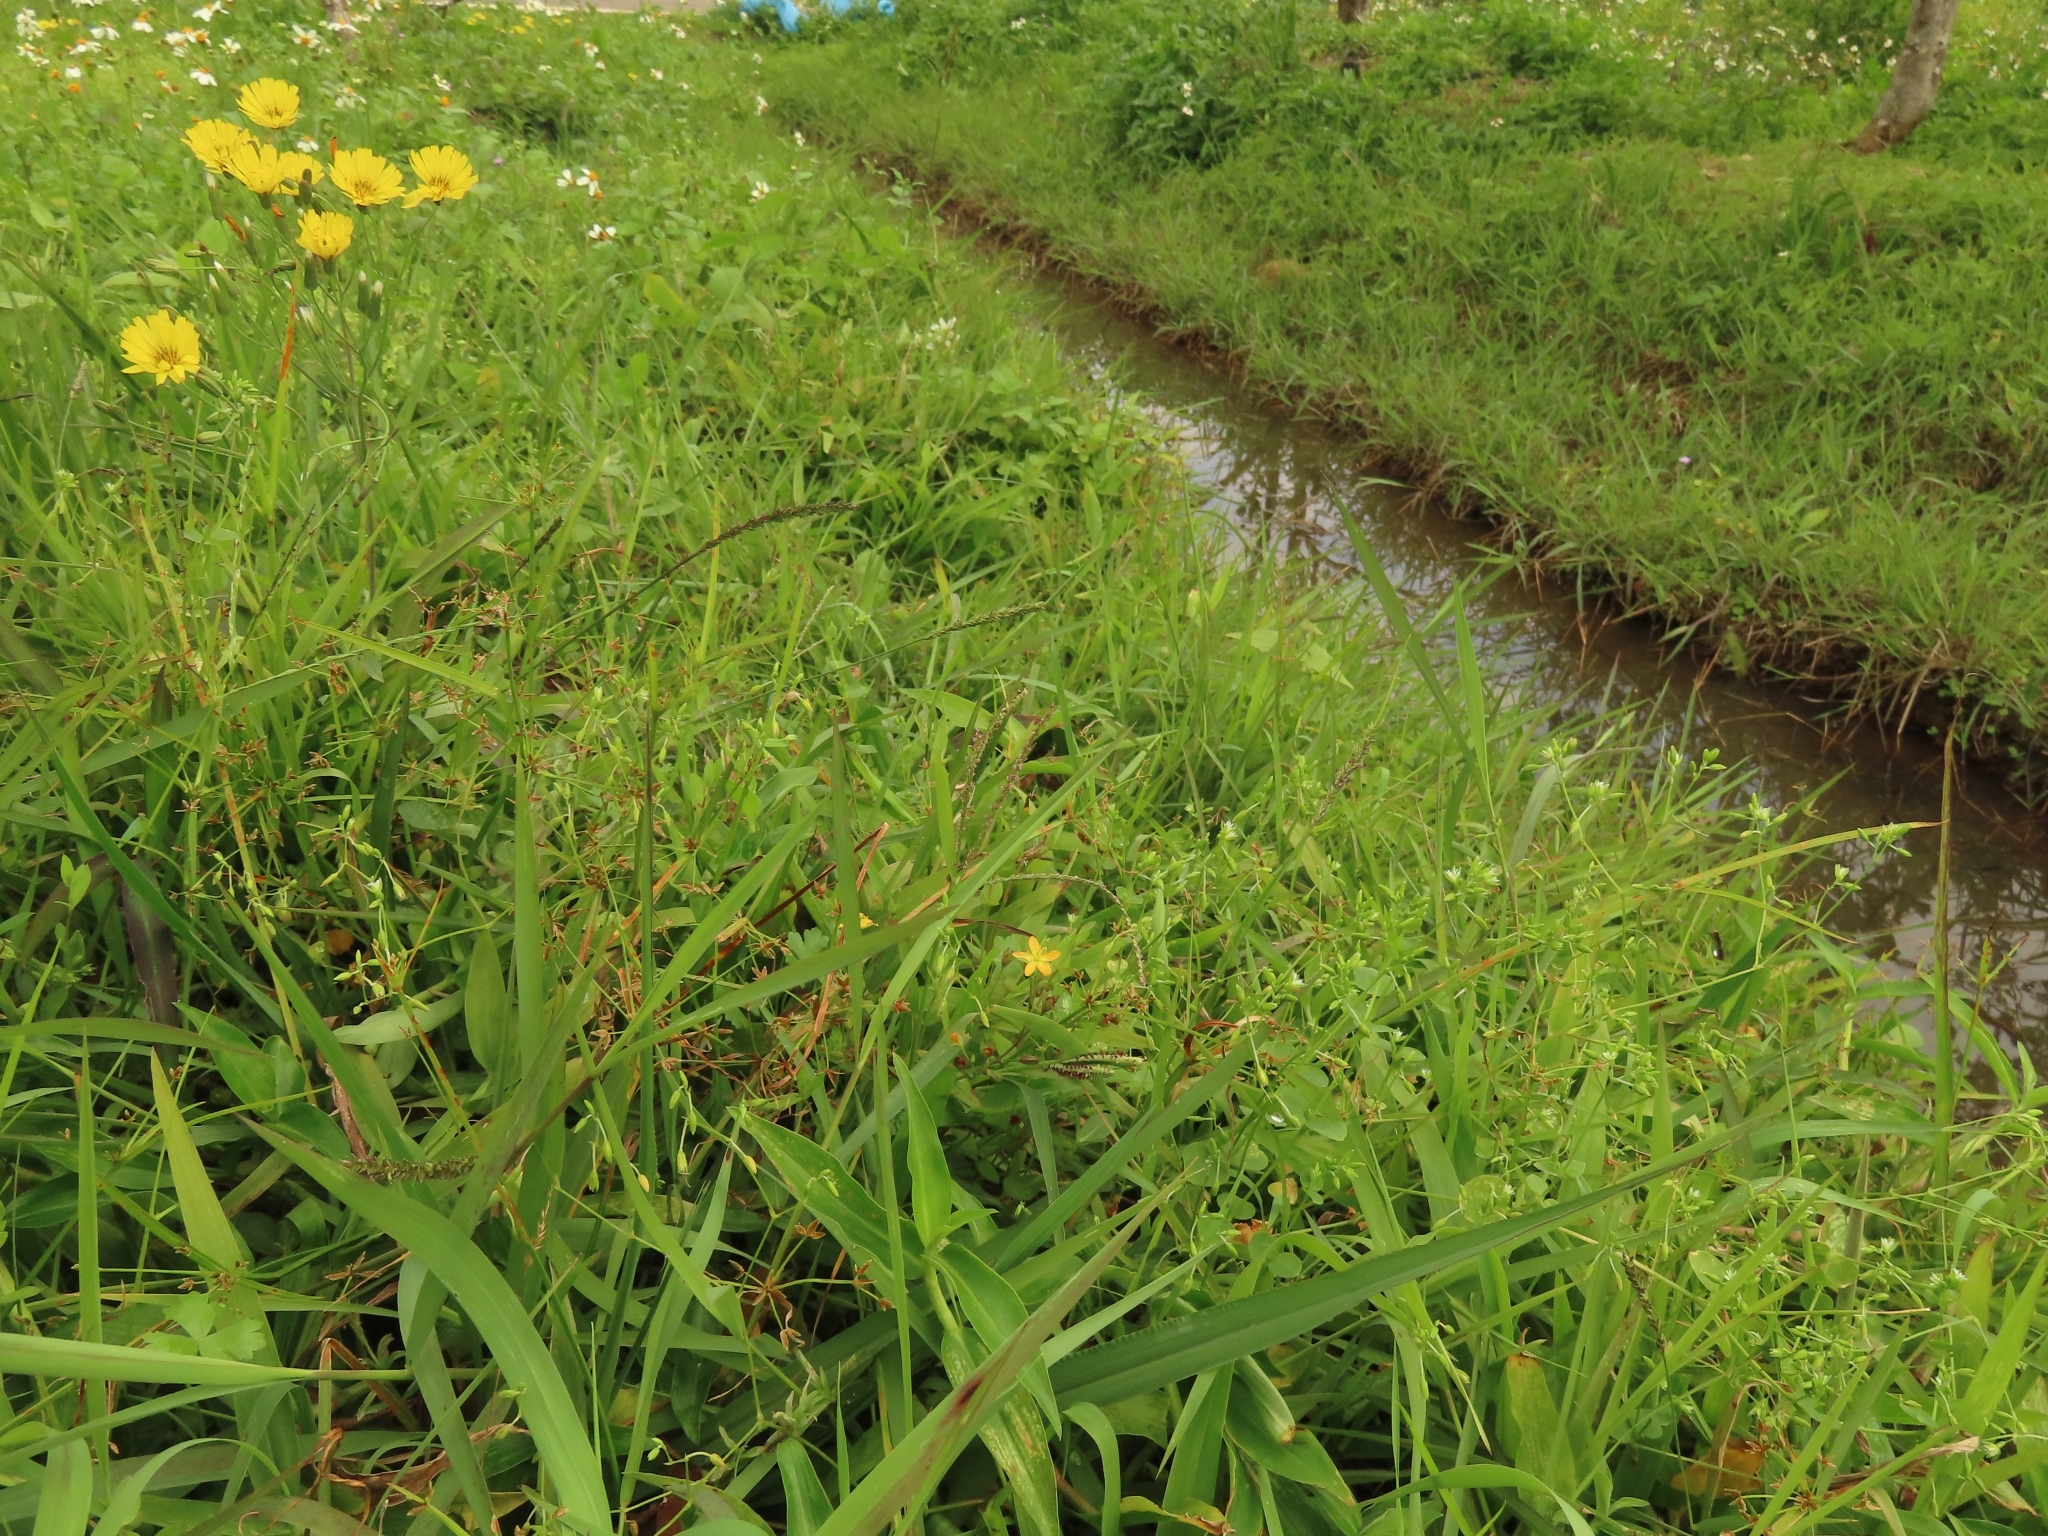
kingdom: Plantae
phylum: Tracheophyta
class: Magnoliopsida
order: Malpighiales
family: Hypericaceae
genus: Hypericum
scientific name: Hypericum japonicum
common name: Matted st. john's-wort
